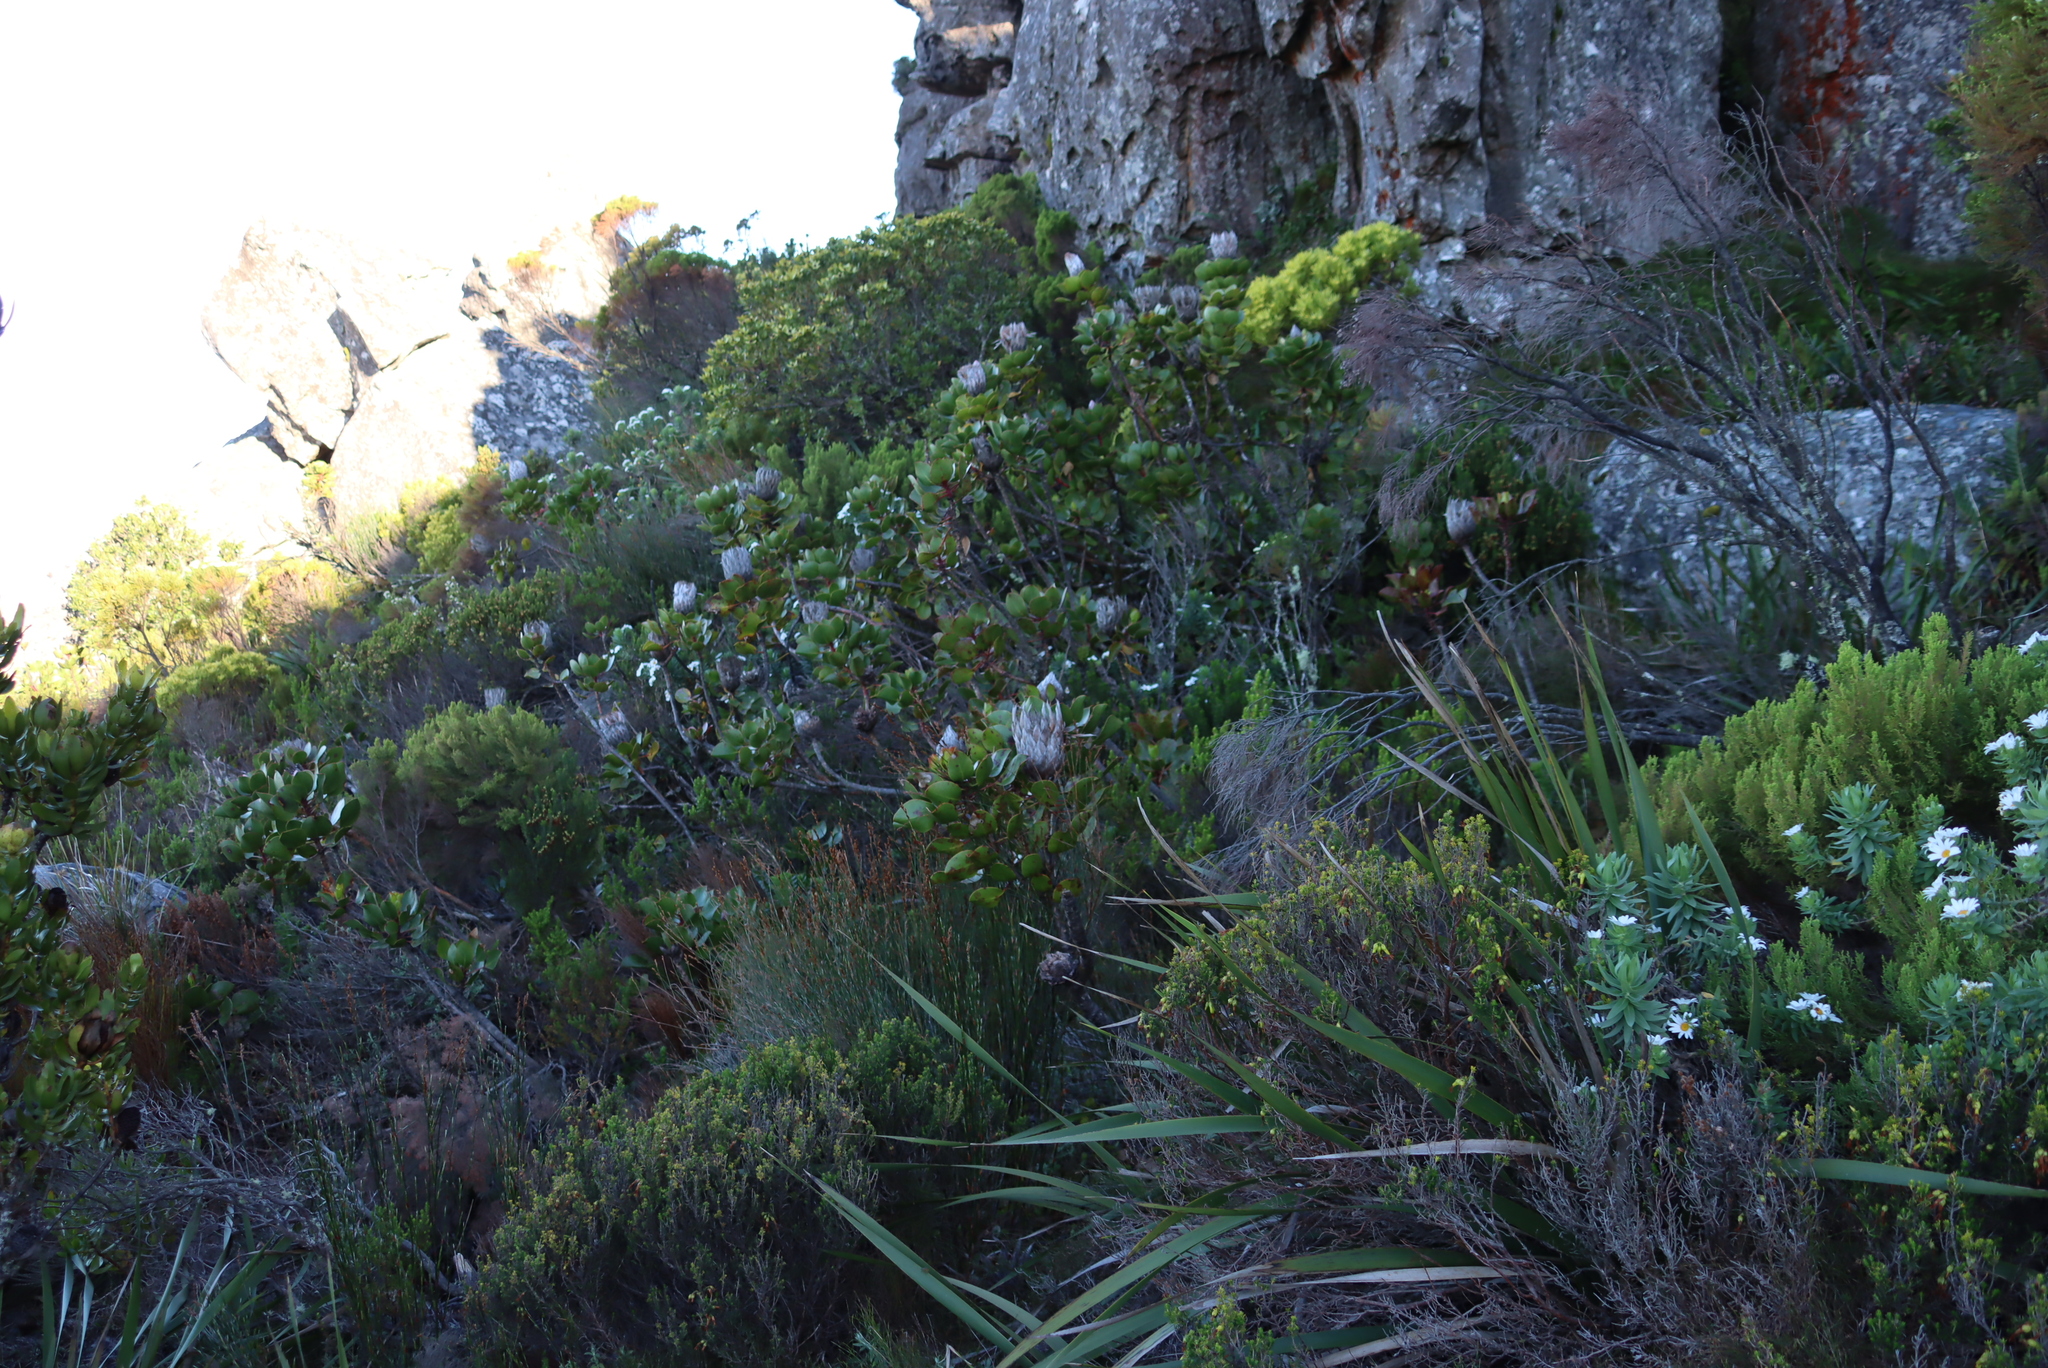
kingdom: Plantae
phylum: Tracheophyta
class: Magnoliopsida
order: Proteales
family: Proteaceae
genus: Protea
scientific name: Protea cynaroides
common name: King protea
